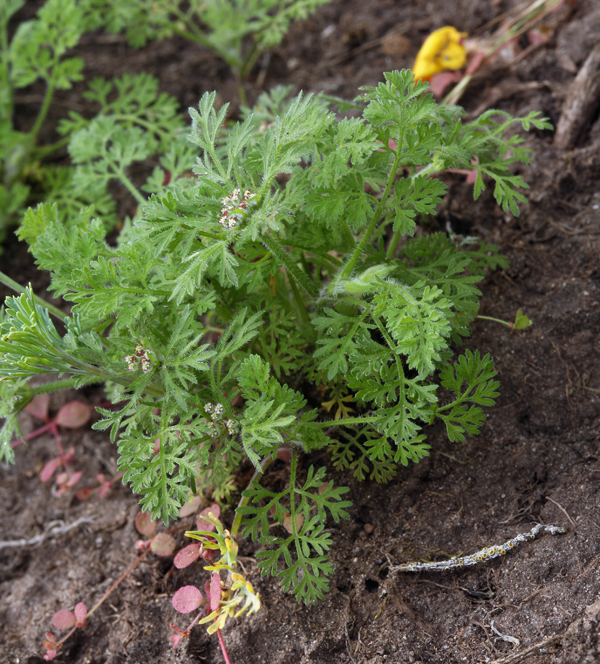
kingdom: Plantae
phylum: Tracheophyta
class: Magnoliopsida
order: Apiales
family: Apiaceae
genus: Daucus
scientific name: Daucus pusillus
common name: Southwest wild carrot
